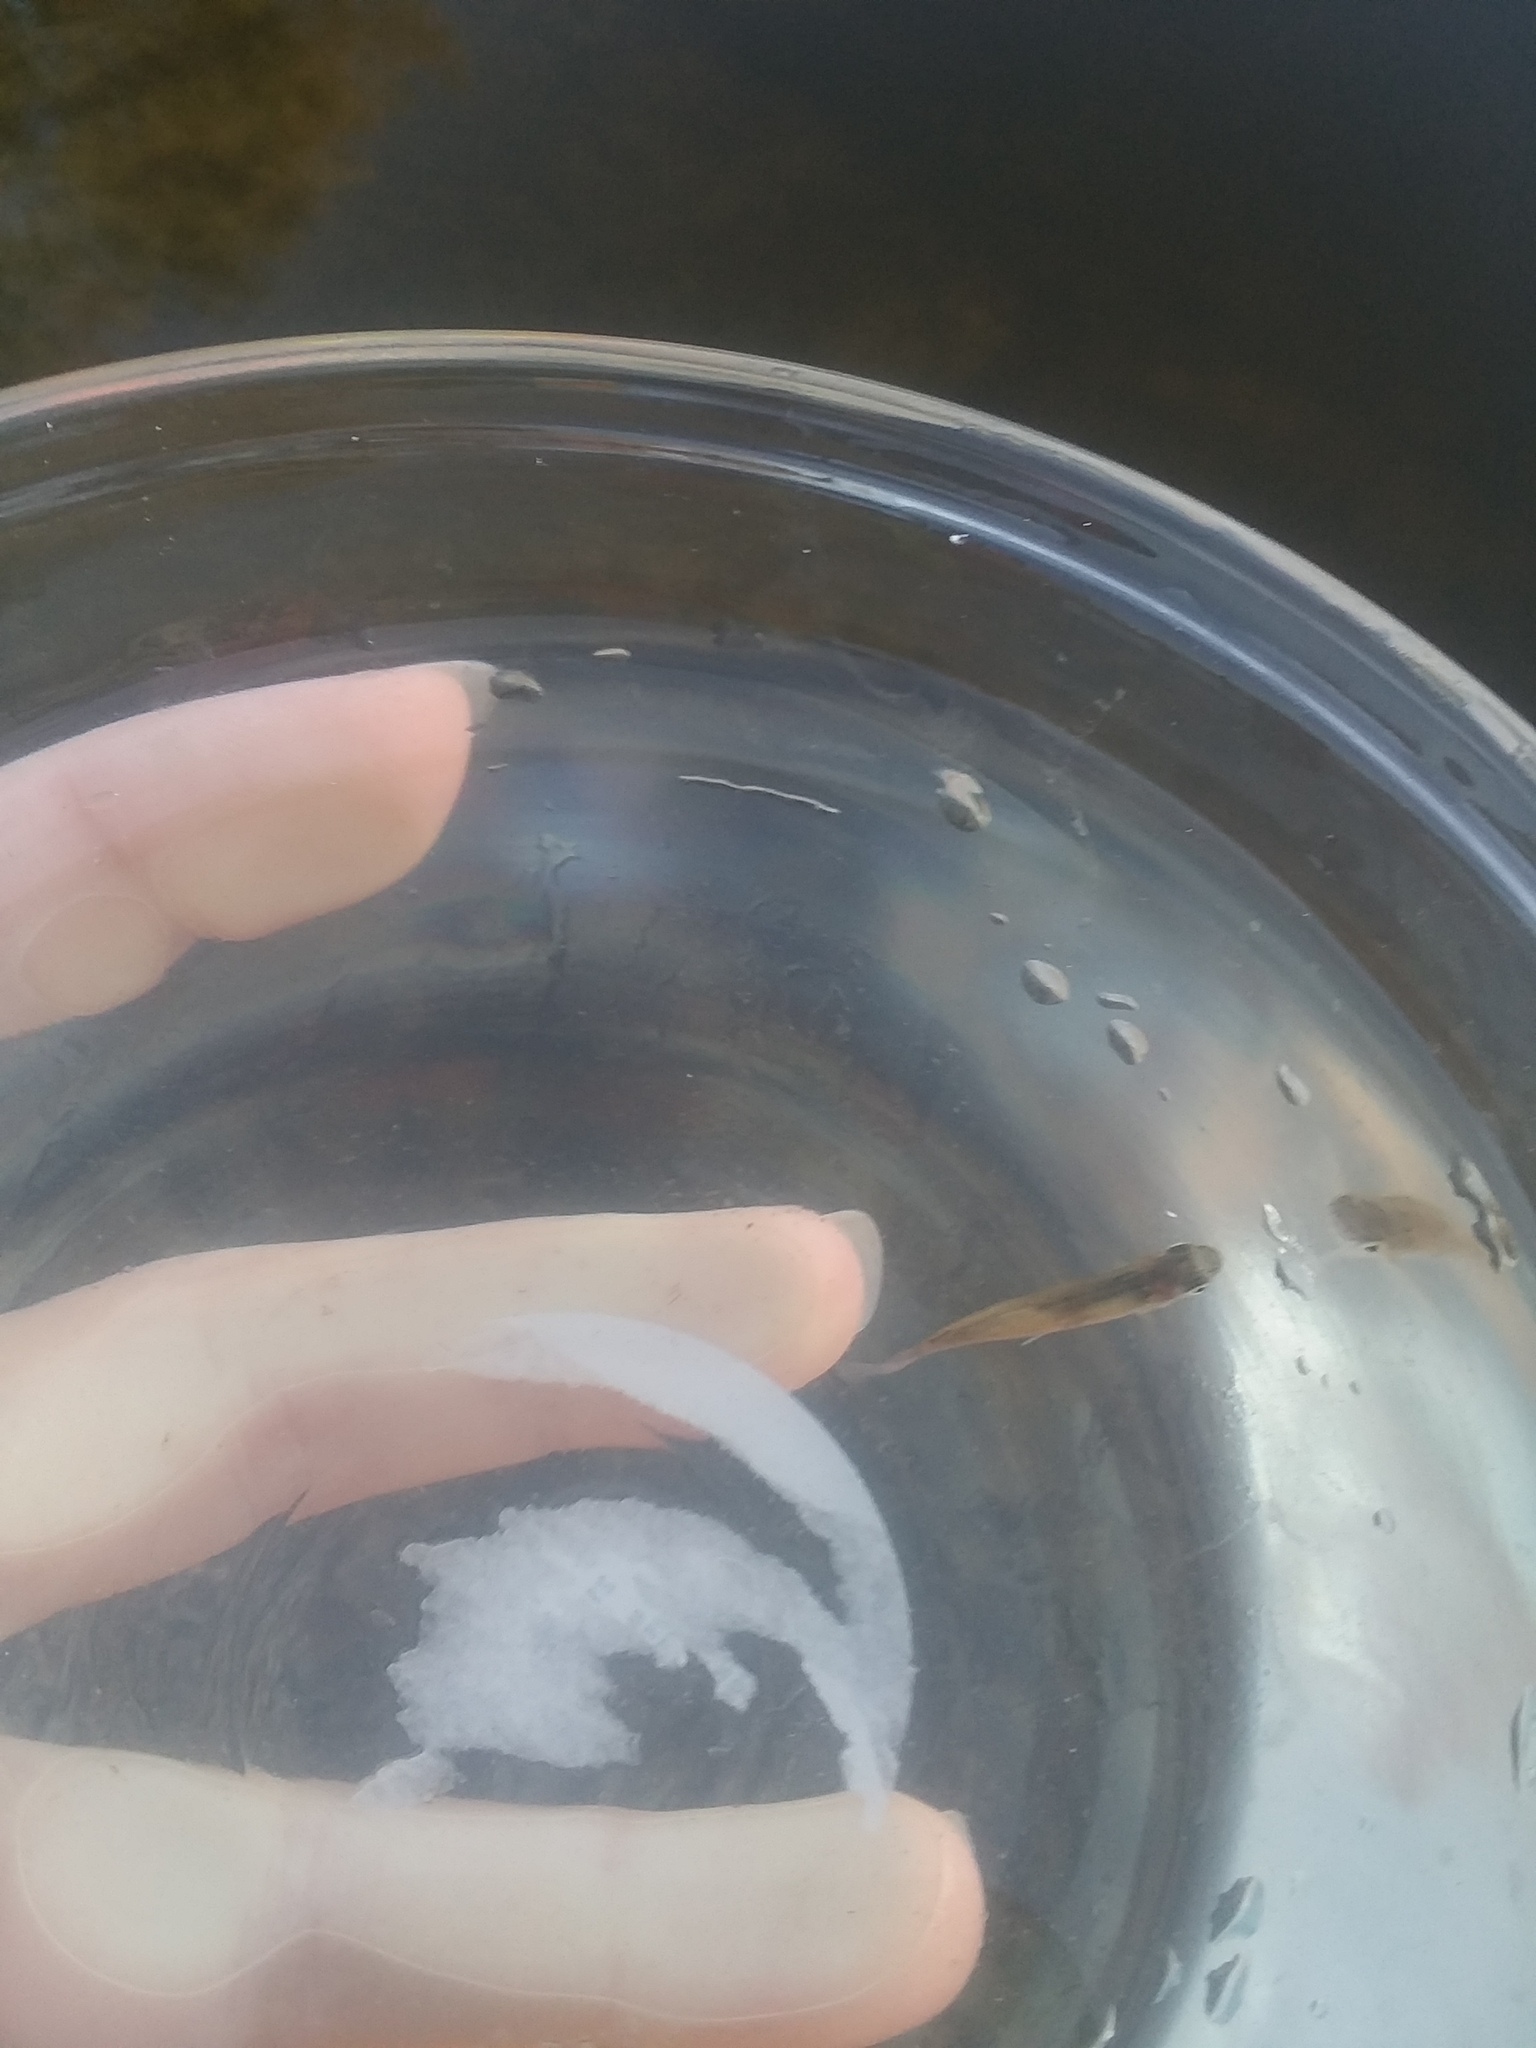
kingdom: Animalia
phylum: Chordata
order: Cyprinodontiformes
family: Poeciliidae
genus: Gambusia
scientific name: Gambusia holbrooki
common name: Eastern mosquitofish
